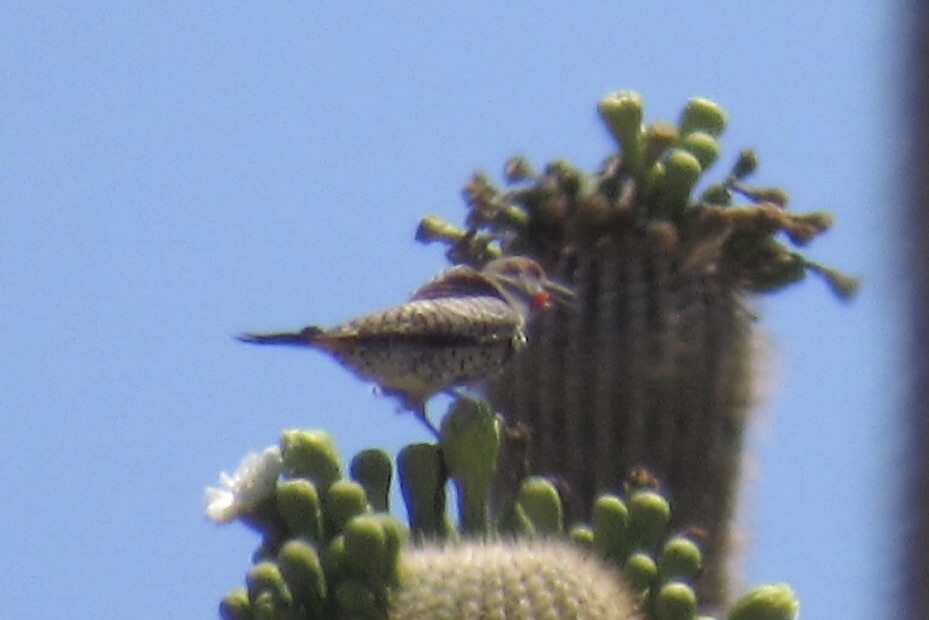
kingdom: Animalia
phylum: Chordata
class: Aves
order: Piciformes
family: Picidae
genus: Colaptes
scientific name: Colaptes chrysoides
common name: Gilded flicker
